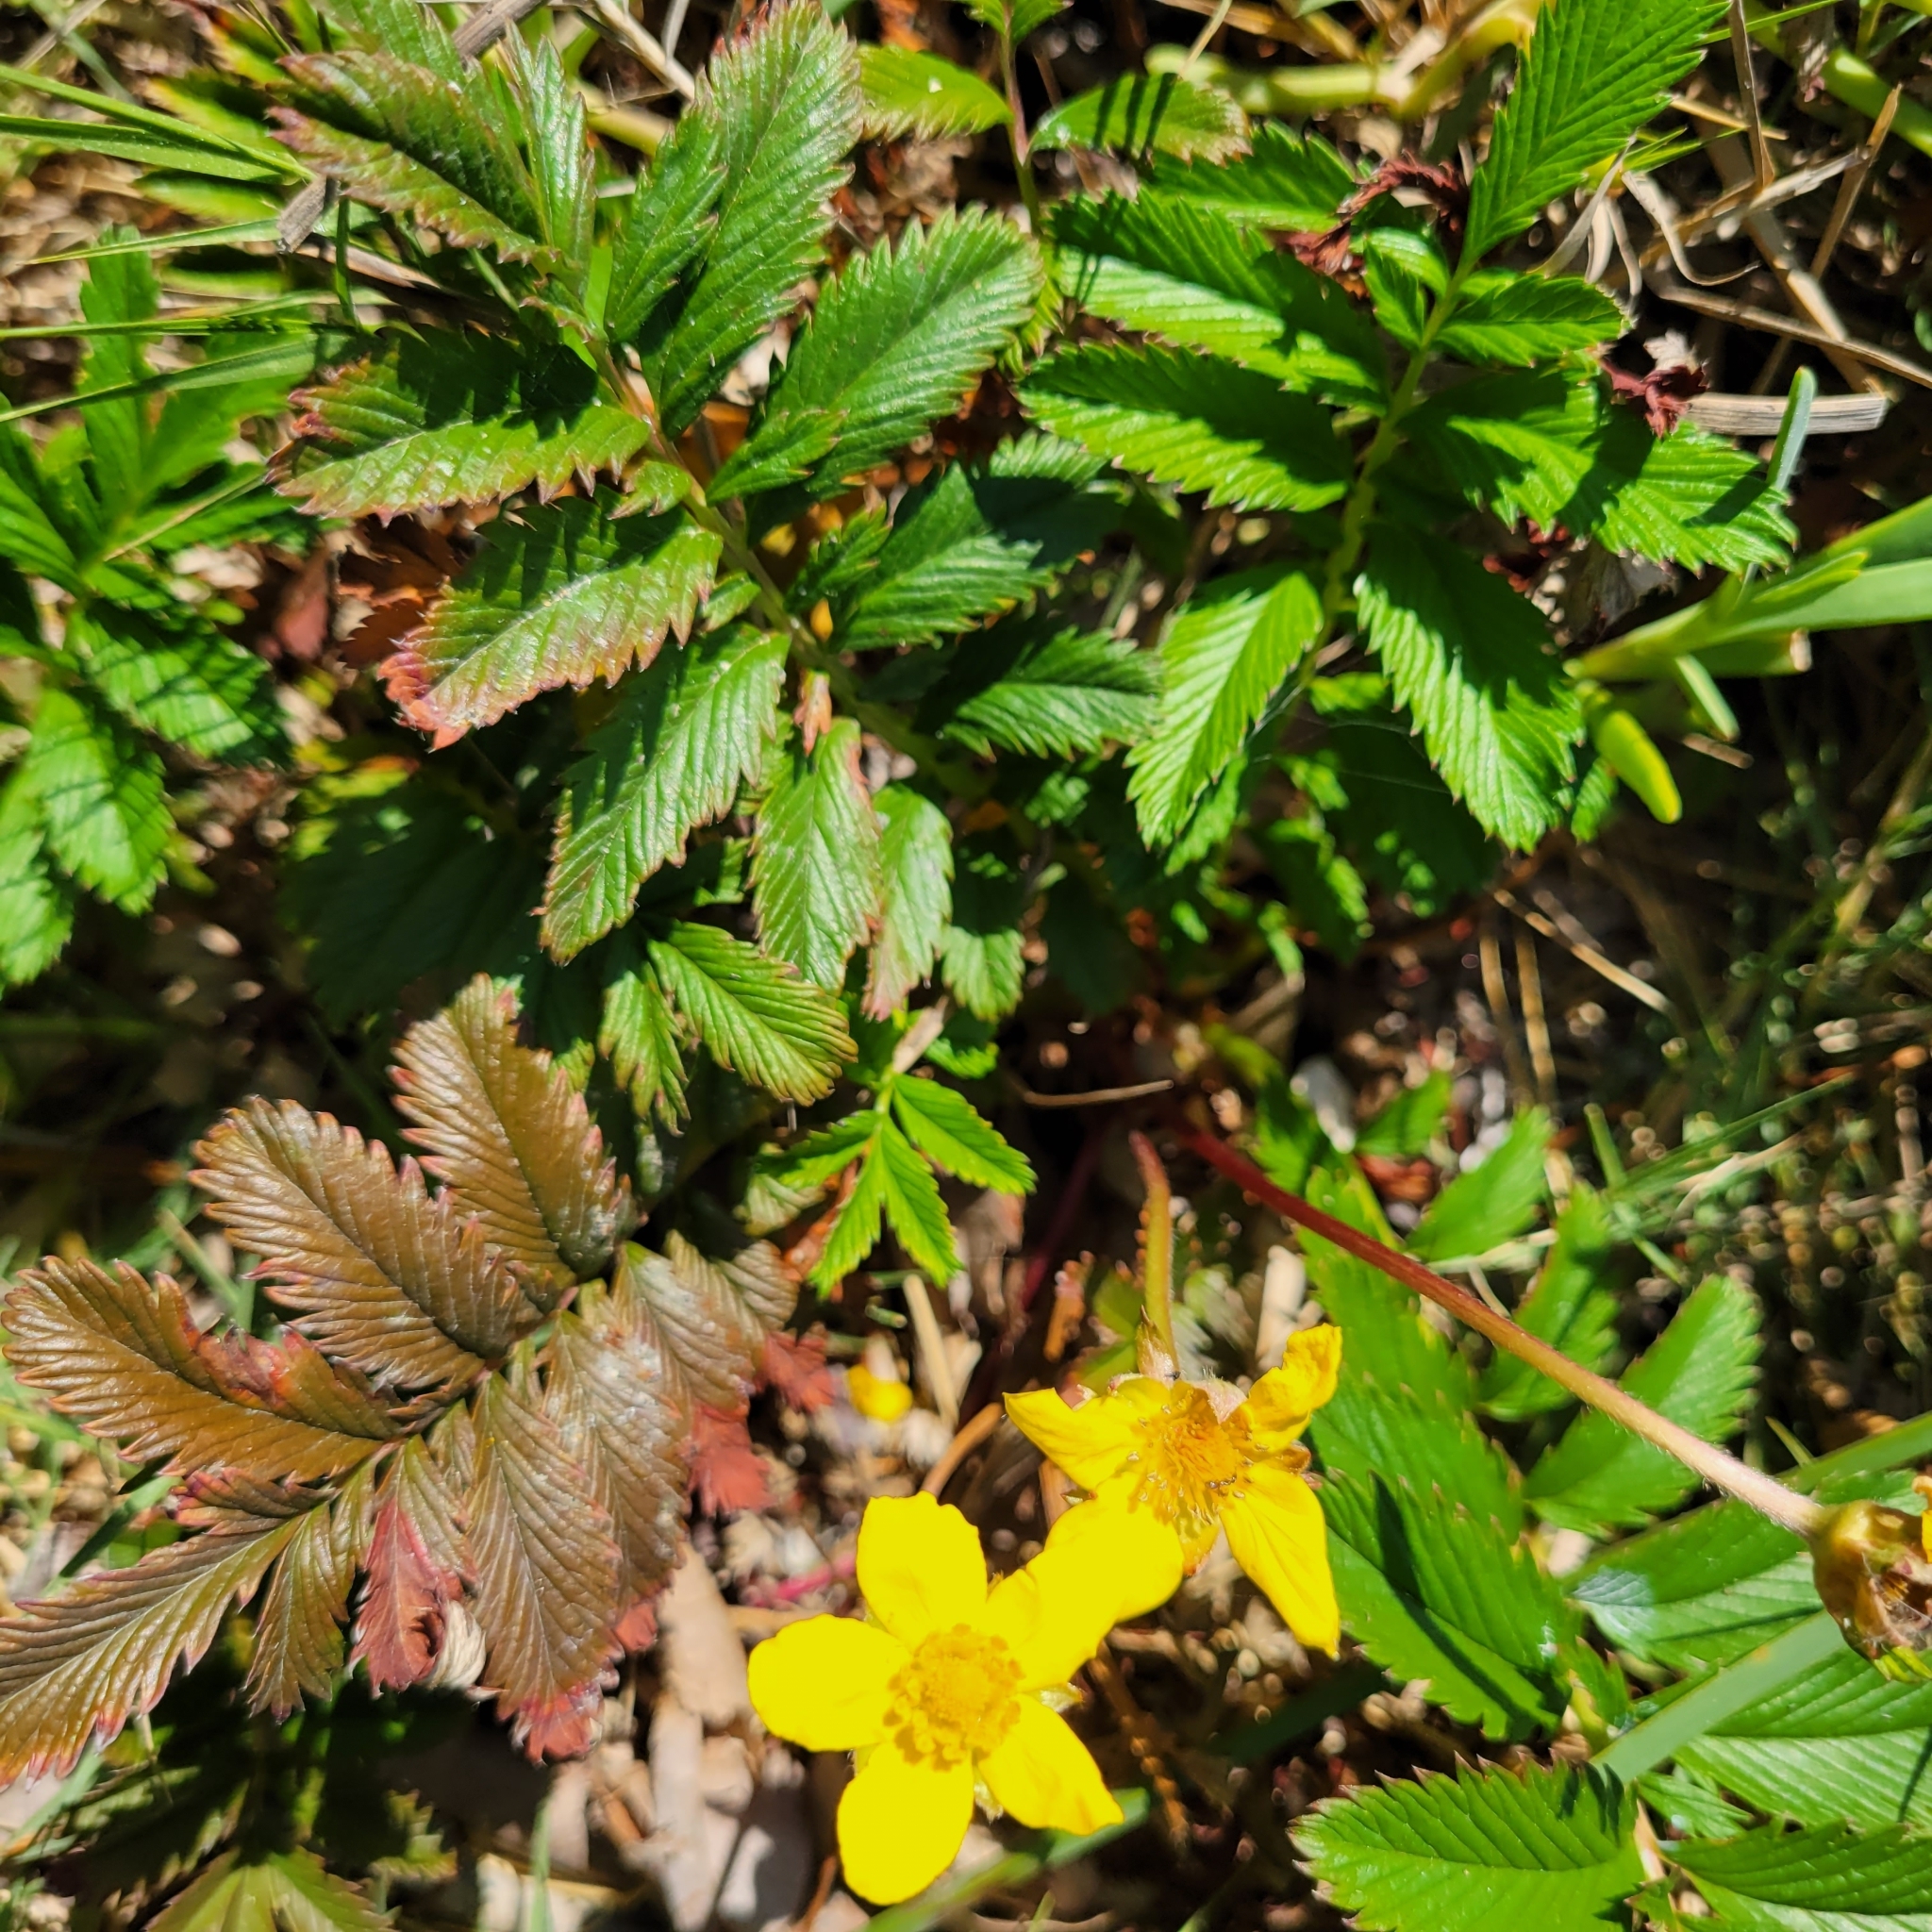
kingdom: Plantae
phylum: Tracheophyta
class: Magnoliopsida
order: Rosales
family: Rosaceae
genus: Argentina
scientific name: Argentina anserina
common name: Common silverweed
